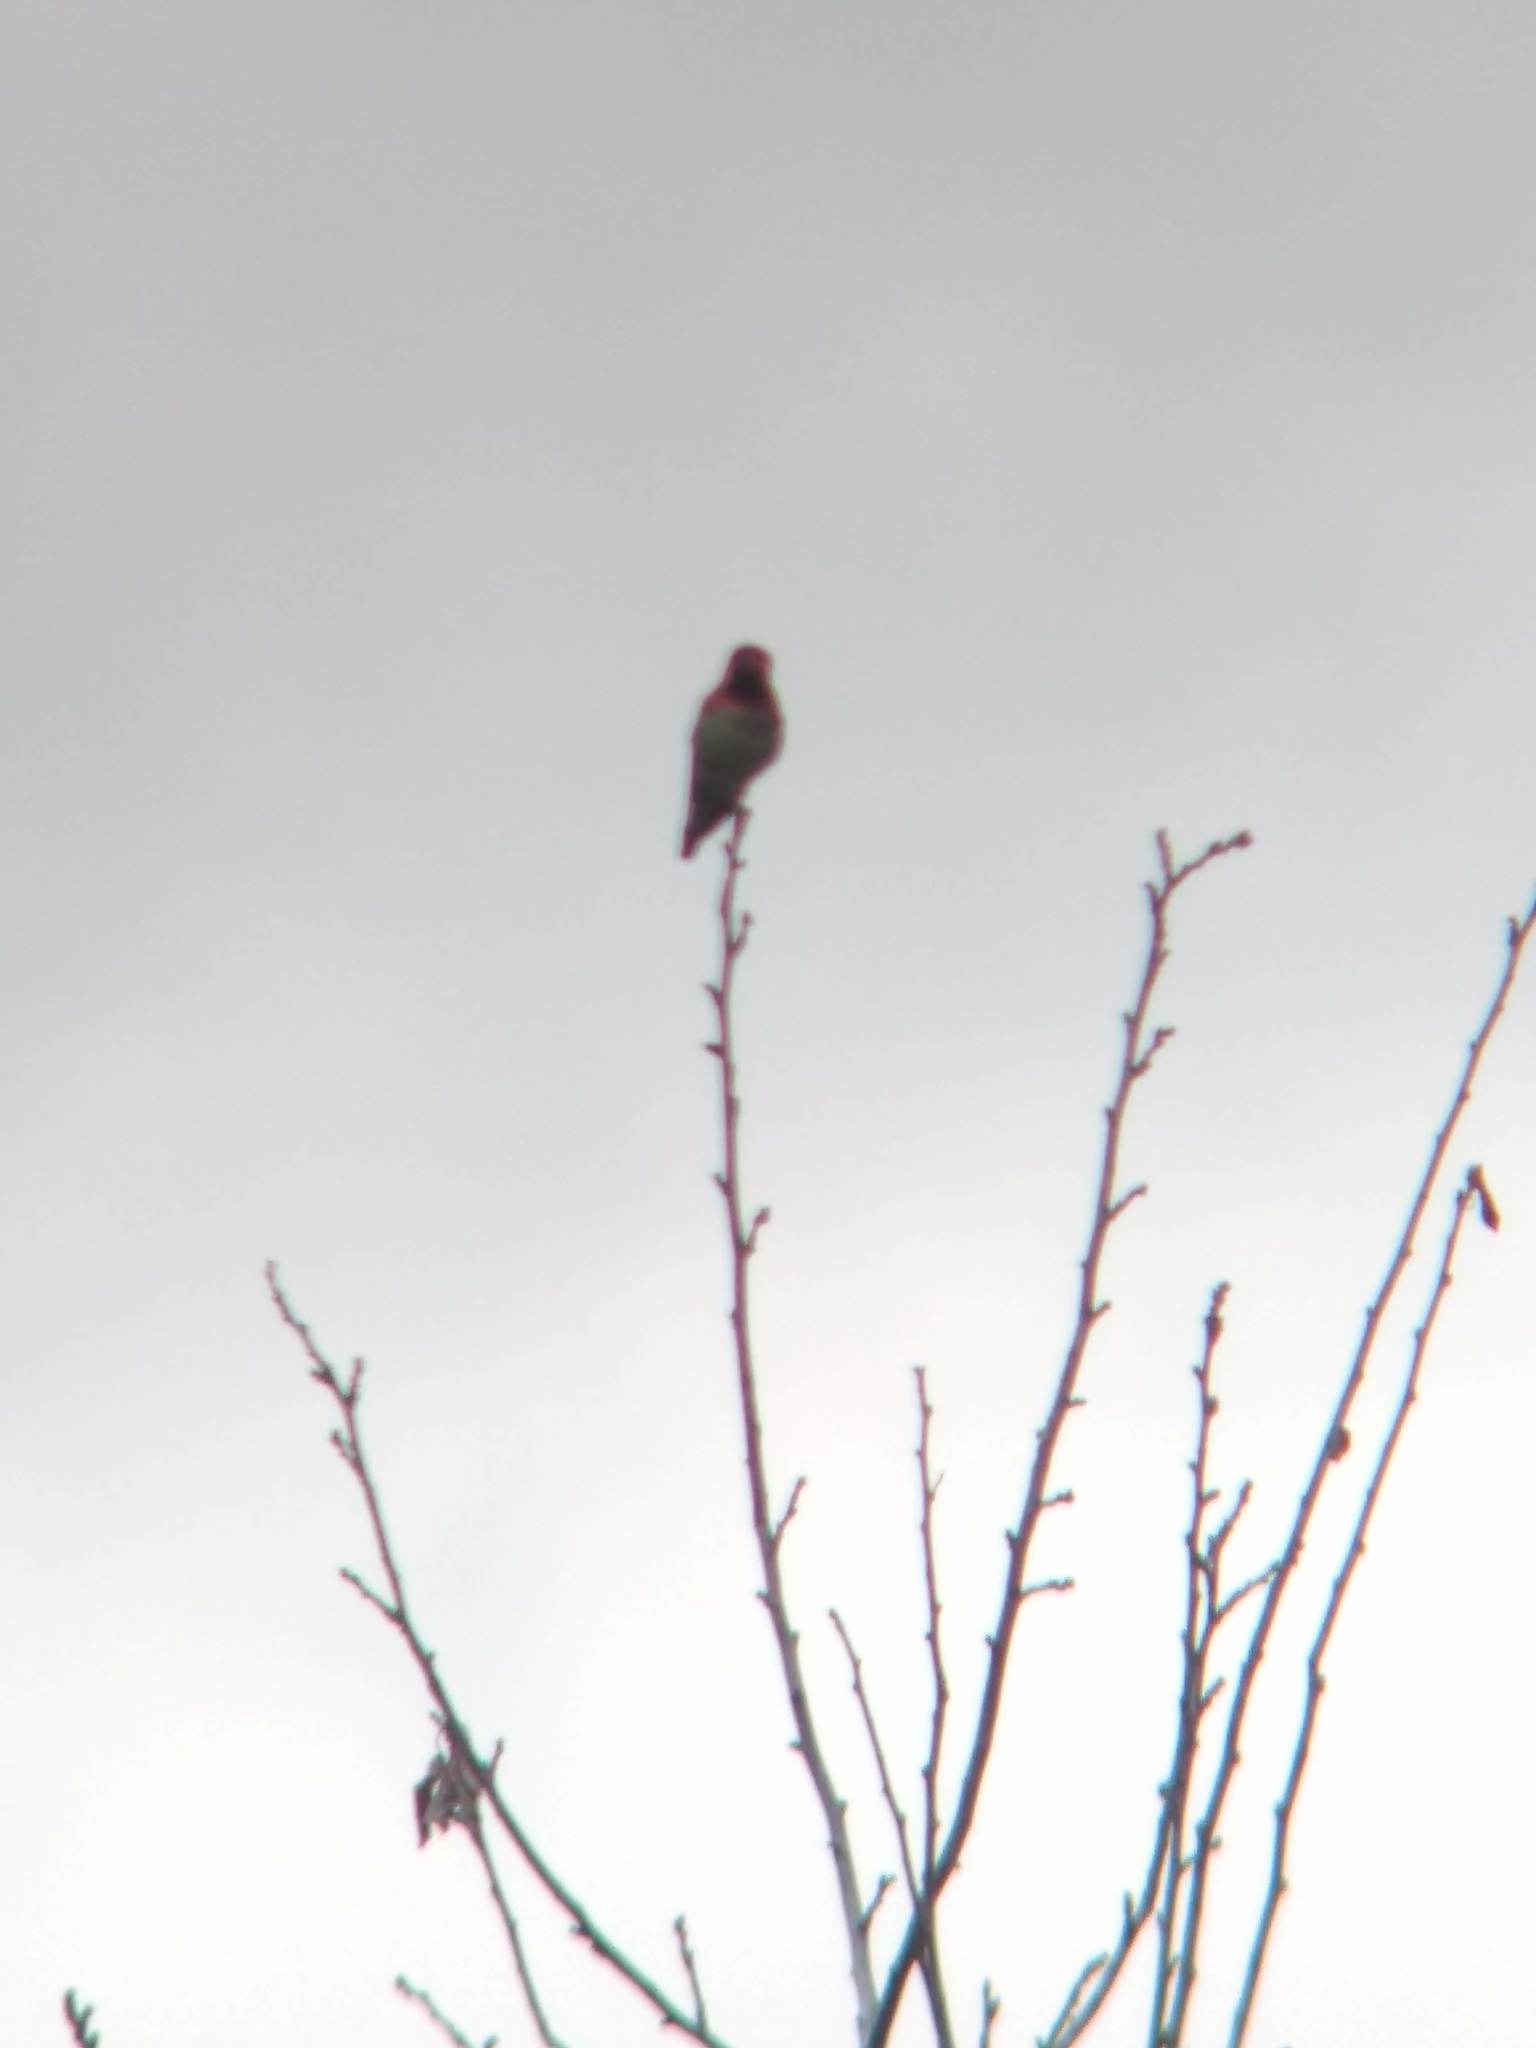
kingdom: Animalia
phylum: Chordata
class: Aves
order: Apodiformes
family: Trochilidae
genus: Calypte
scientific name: Calypte anna
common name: Anna's hummingbird
